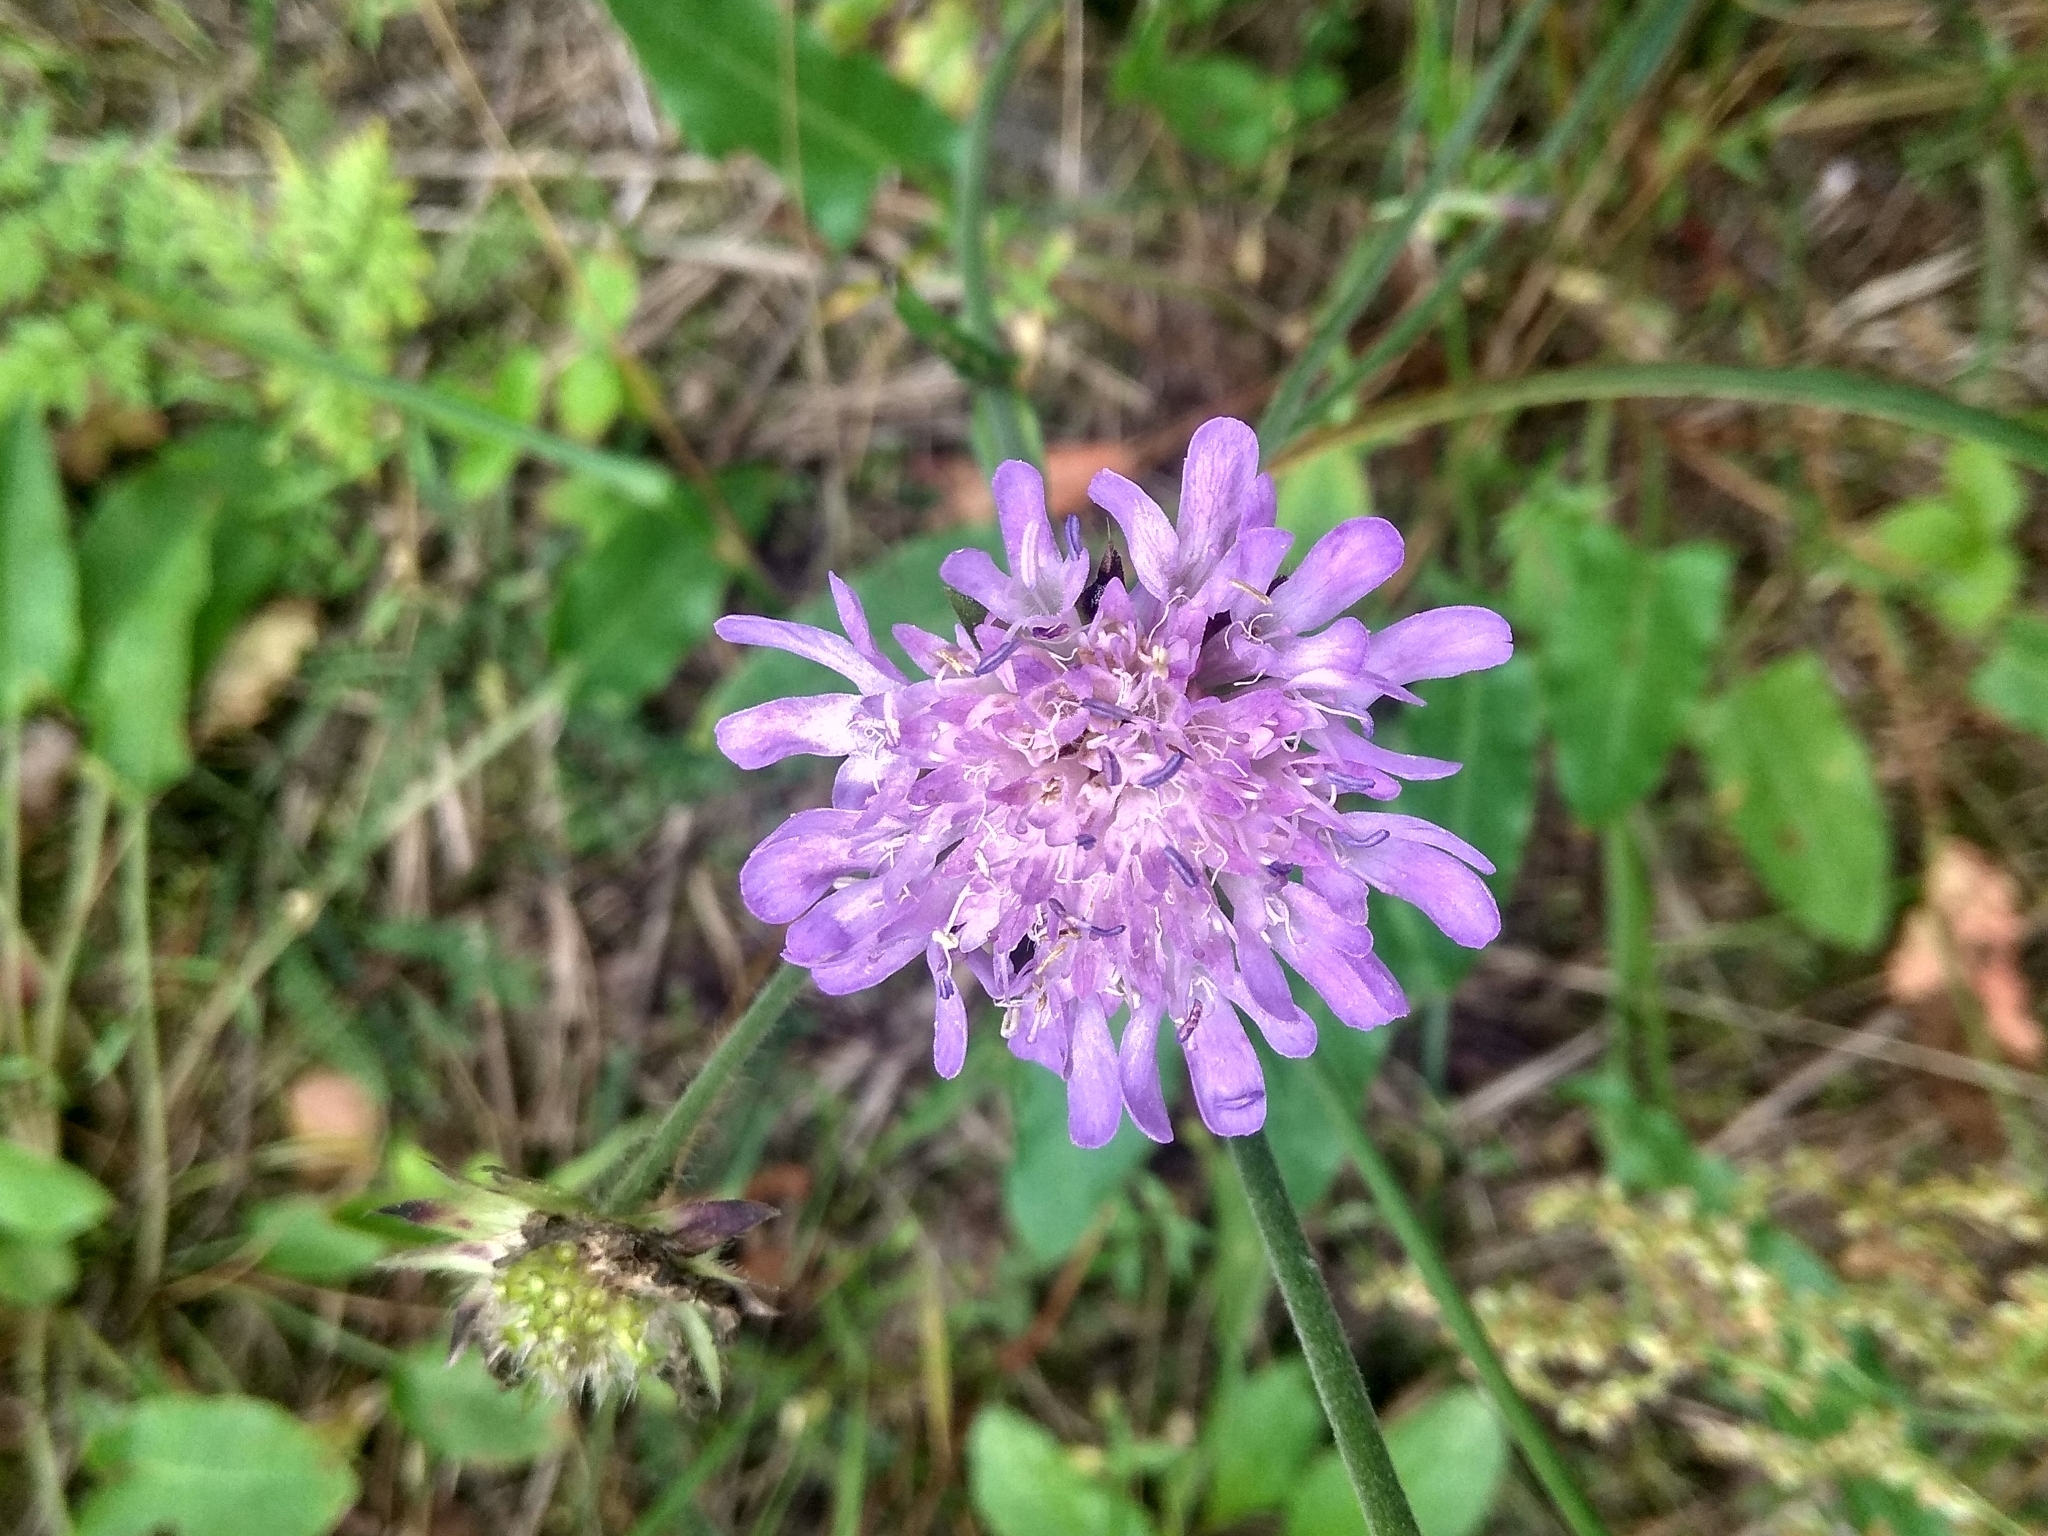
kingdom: Plantae
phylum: Tracheophyta
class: Magnoliopsida
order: Dipsacales
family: Caprifoliaceae
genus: Knautia
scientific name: Knautia arvensis
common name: Field scabiosa
